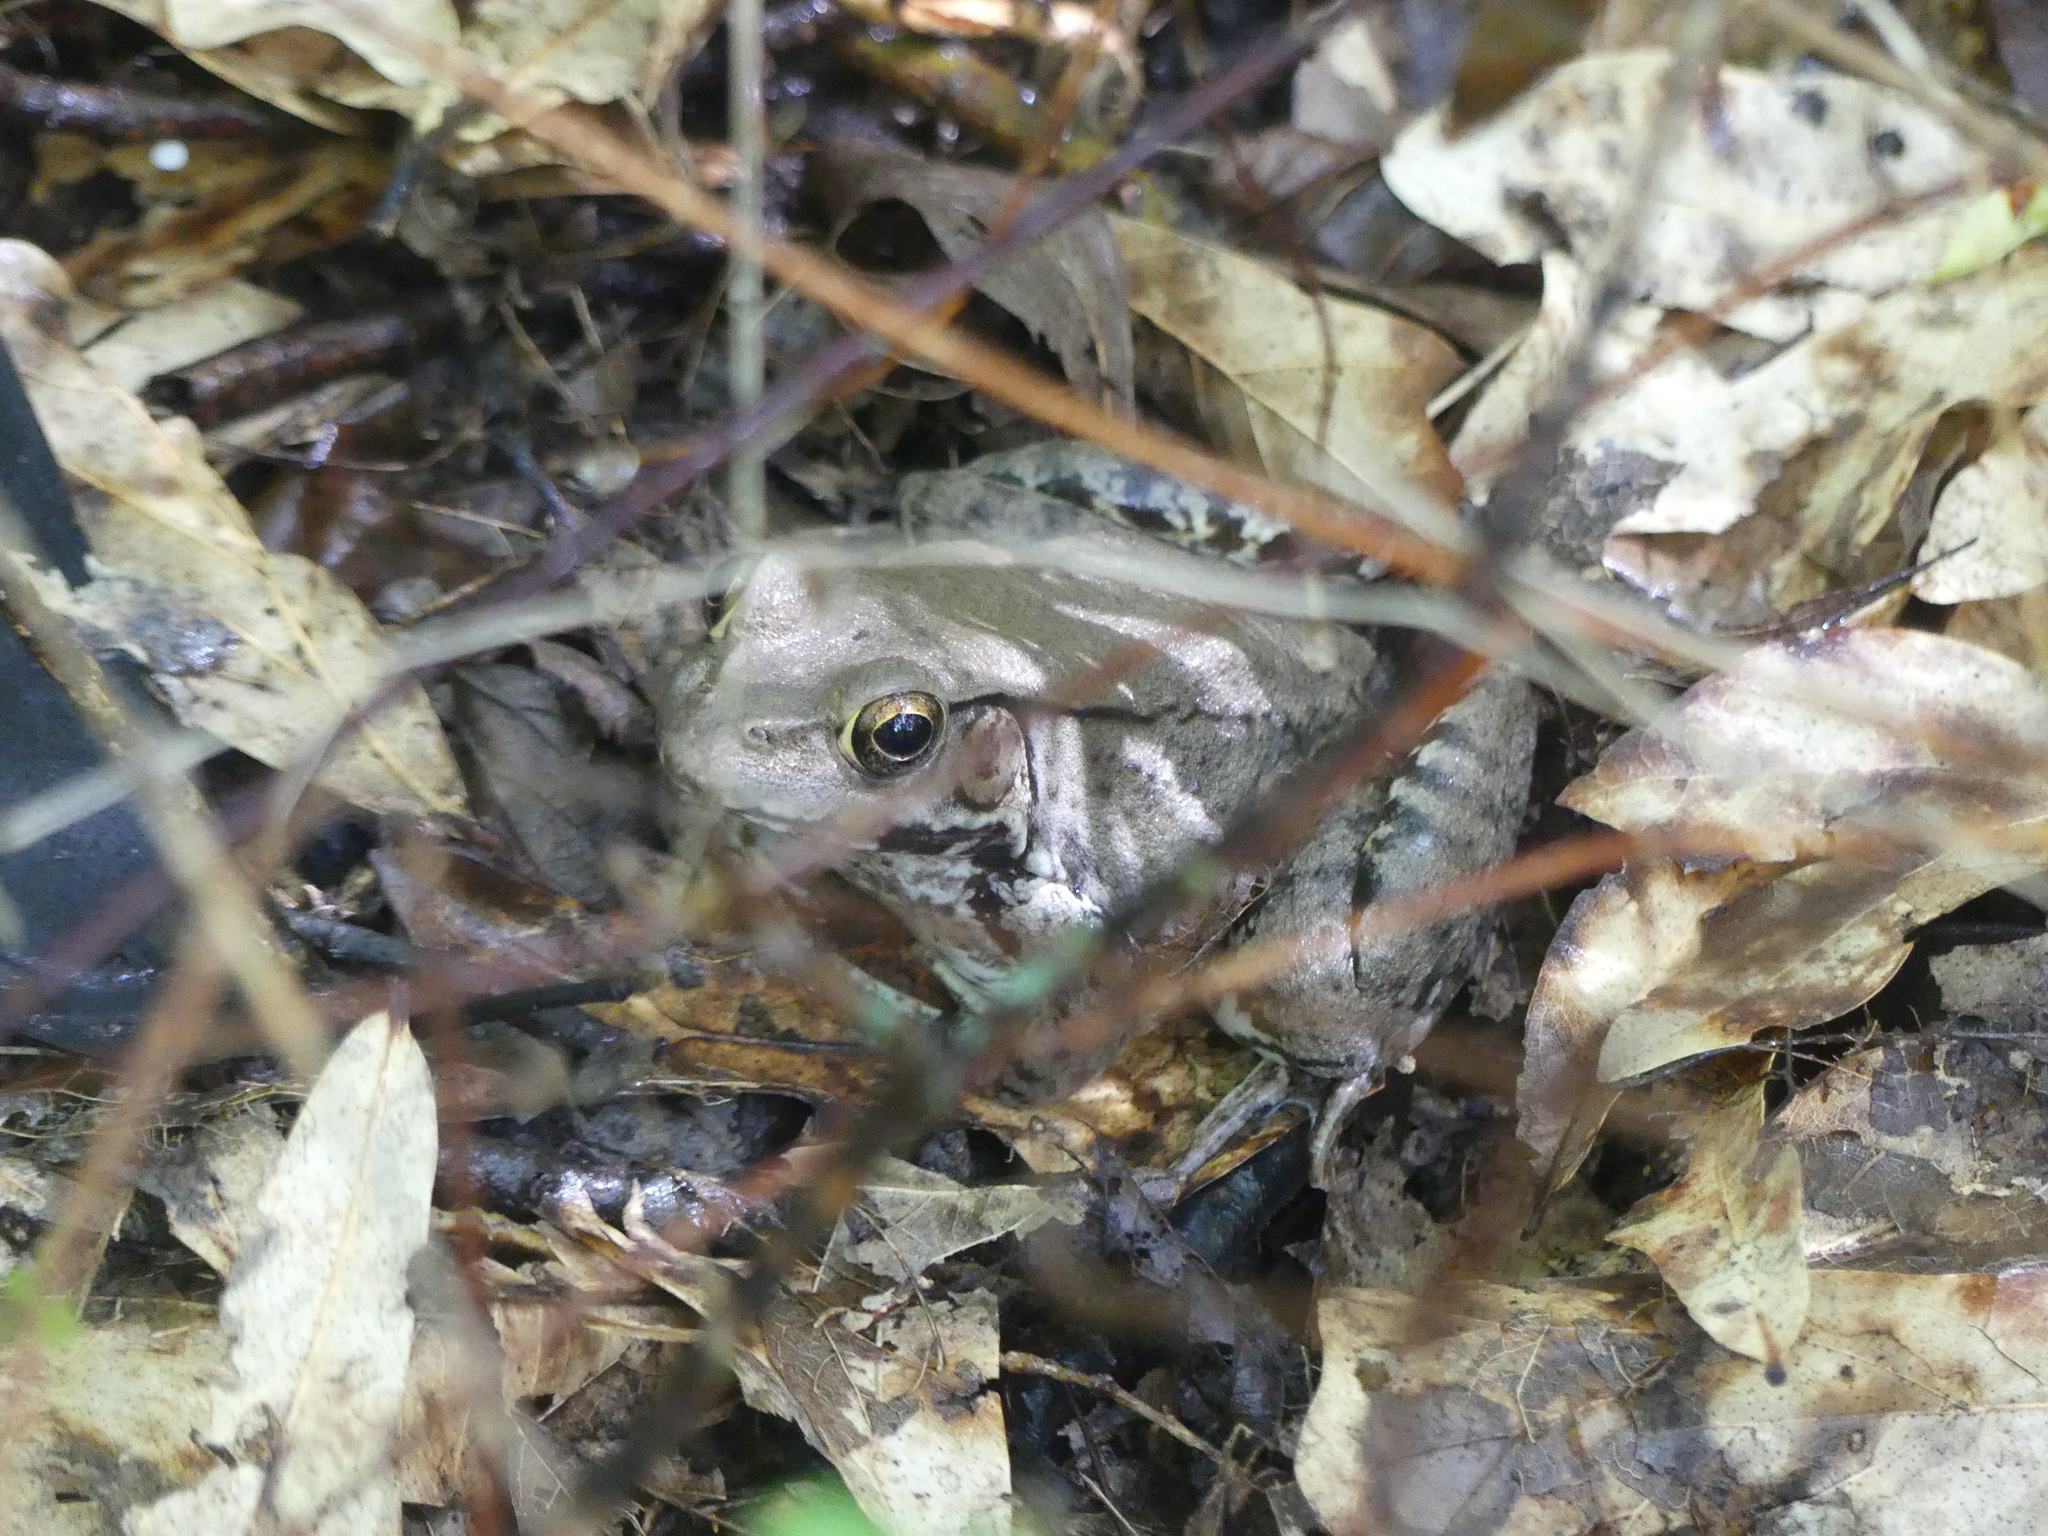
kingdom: Animalia
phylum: Chordata
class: Amphibia
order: Anura
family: Ranidae
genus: Lithobates
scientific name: Lithobates clamitans
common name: Green frog
